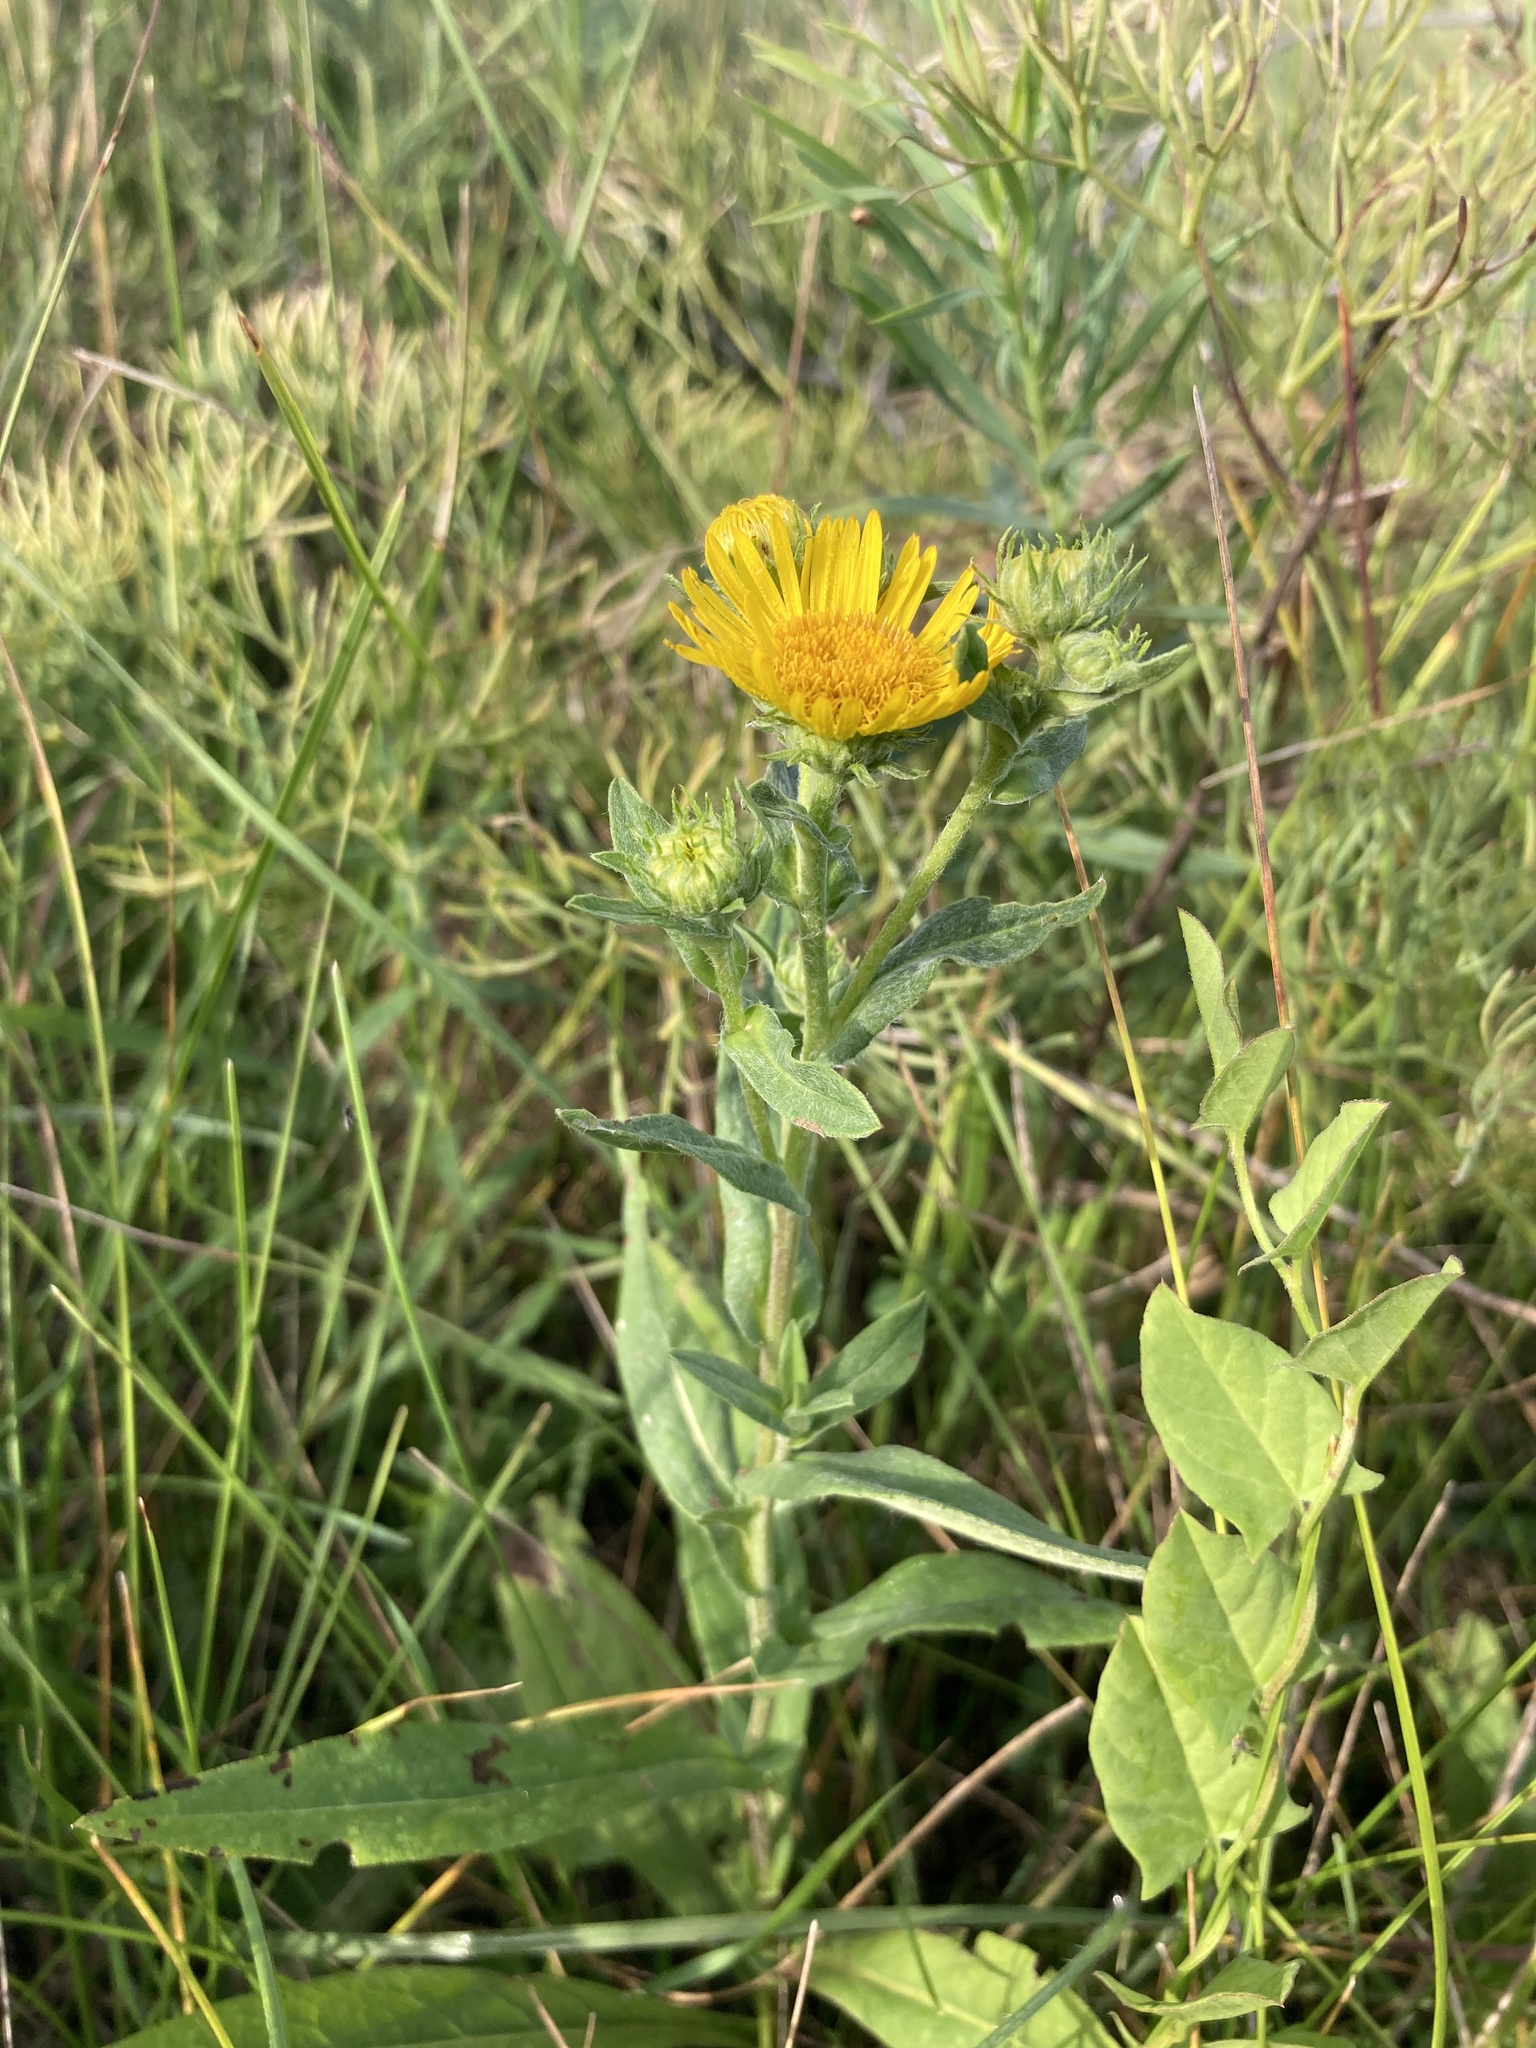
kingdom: Plantae
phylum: Tracheophyta
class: Magnoliopsida
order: Asterales
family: Asteraceae
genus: Pentanema
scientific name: Pentanema britannicum
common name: British elecampane
